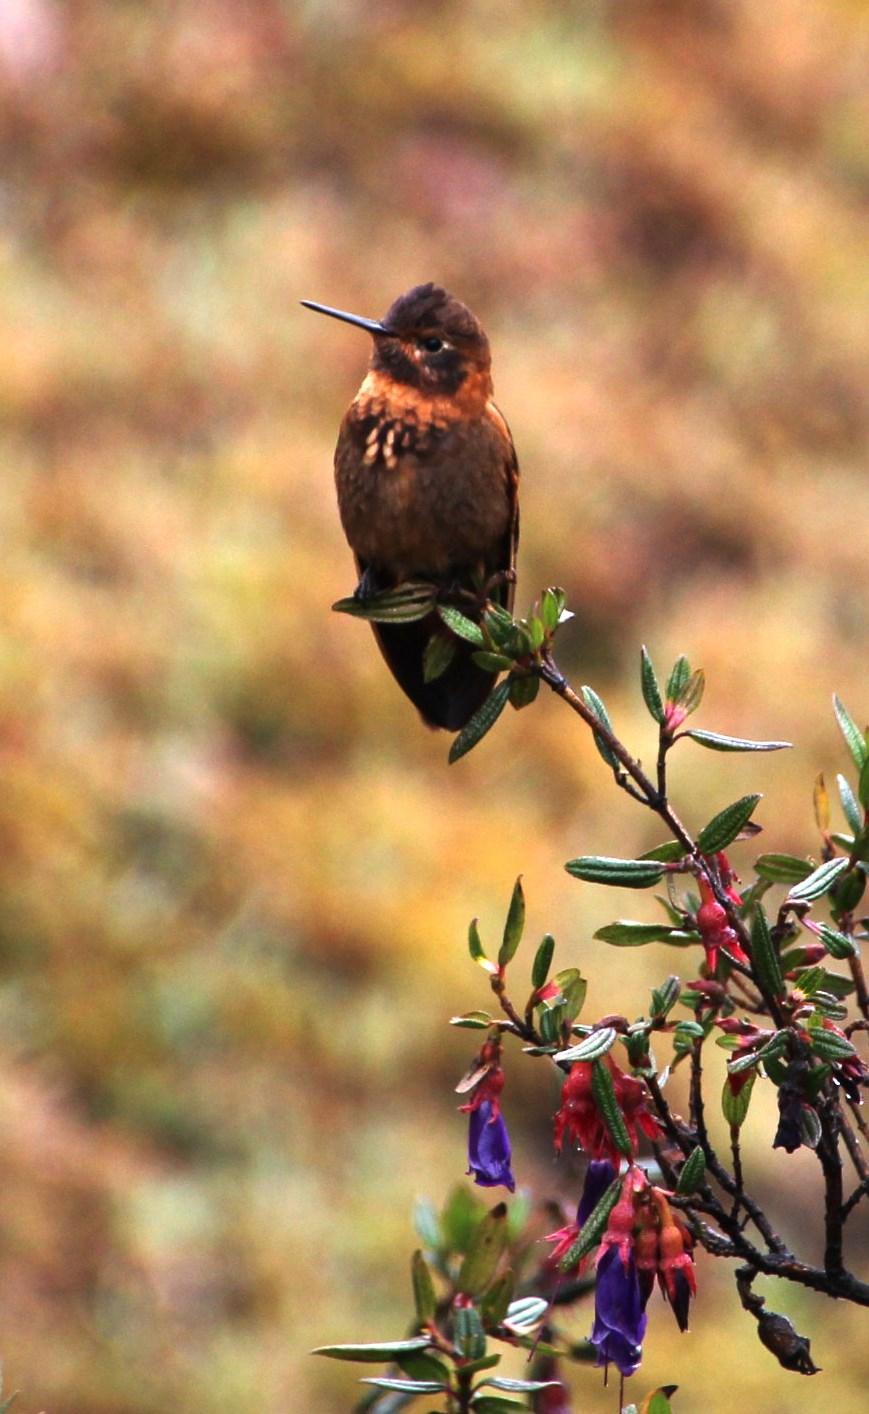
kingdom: Animalia
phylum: Chordata
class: Aves
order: Apodiformes
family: Trochilidae
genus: Aglaeactis
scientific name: Aglaeactis cupripennis
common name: Shining sunbeam
